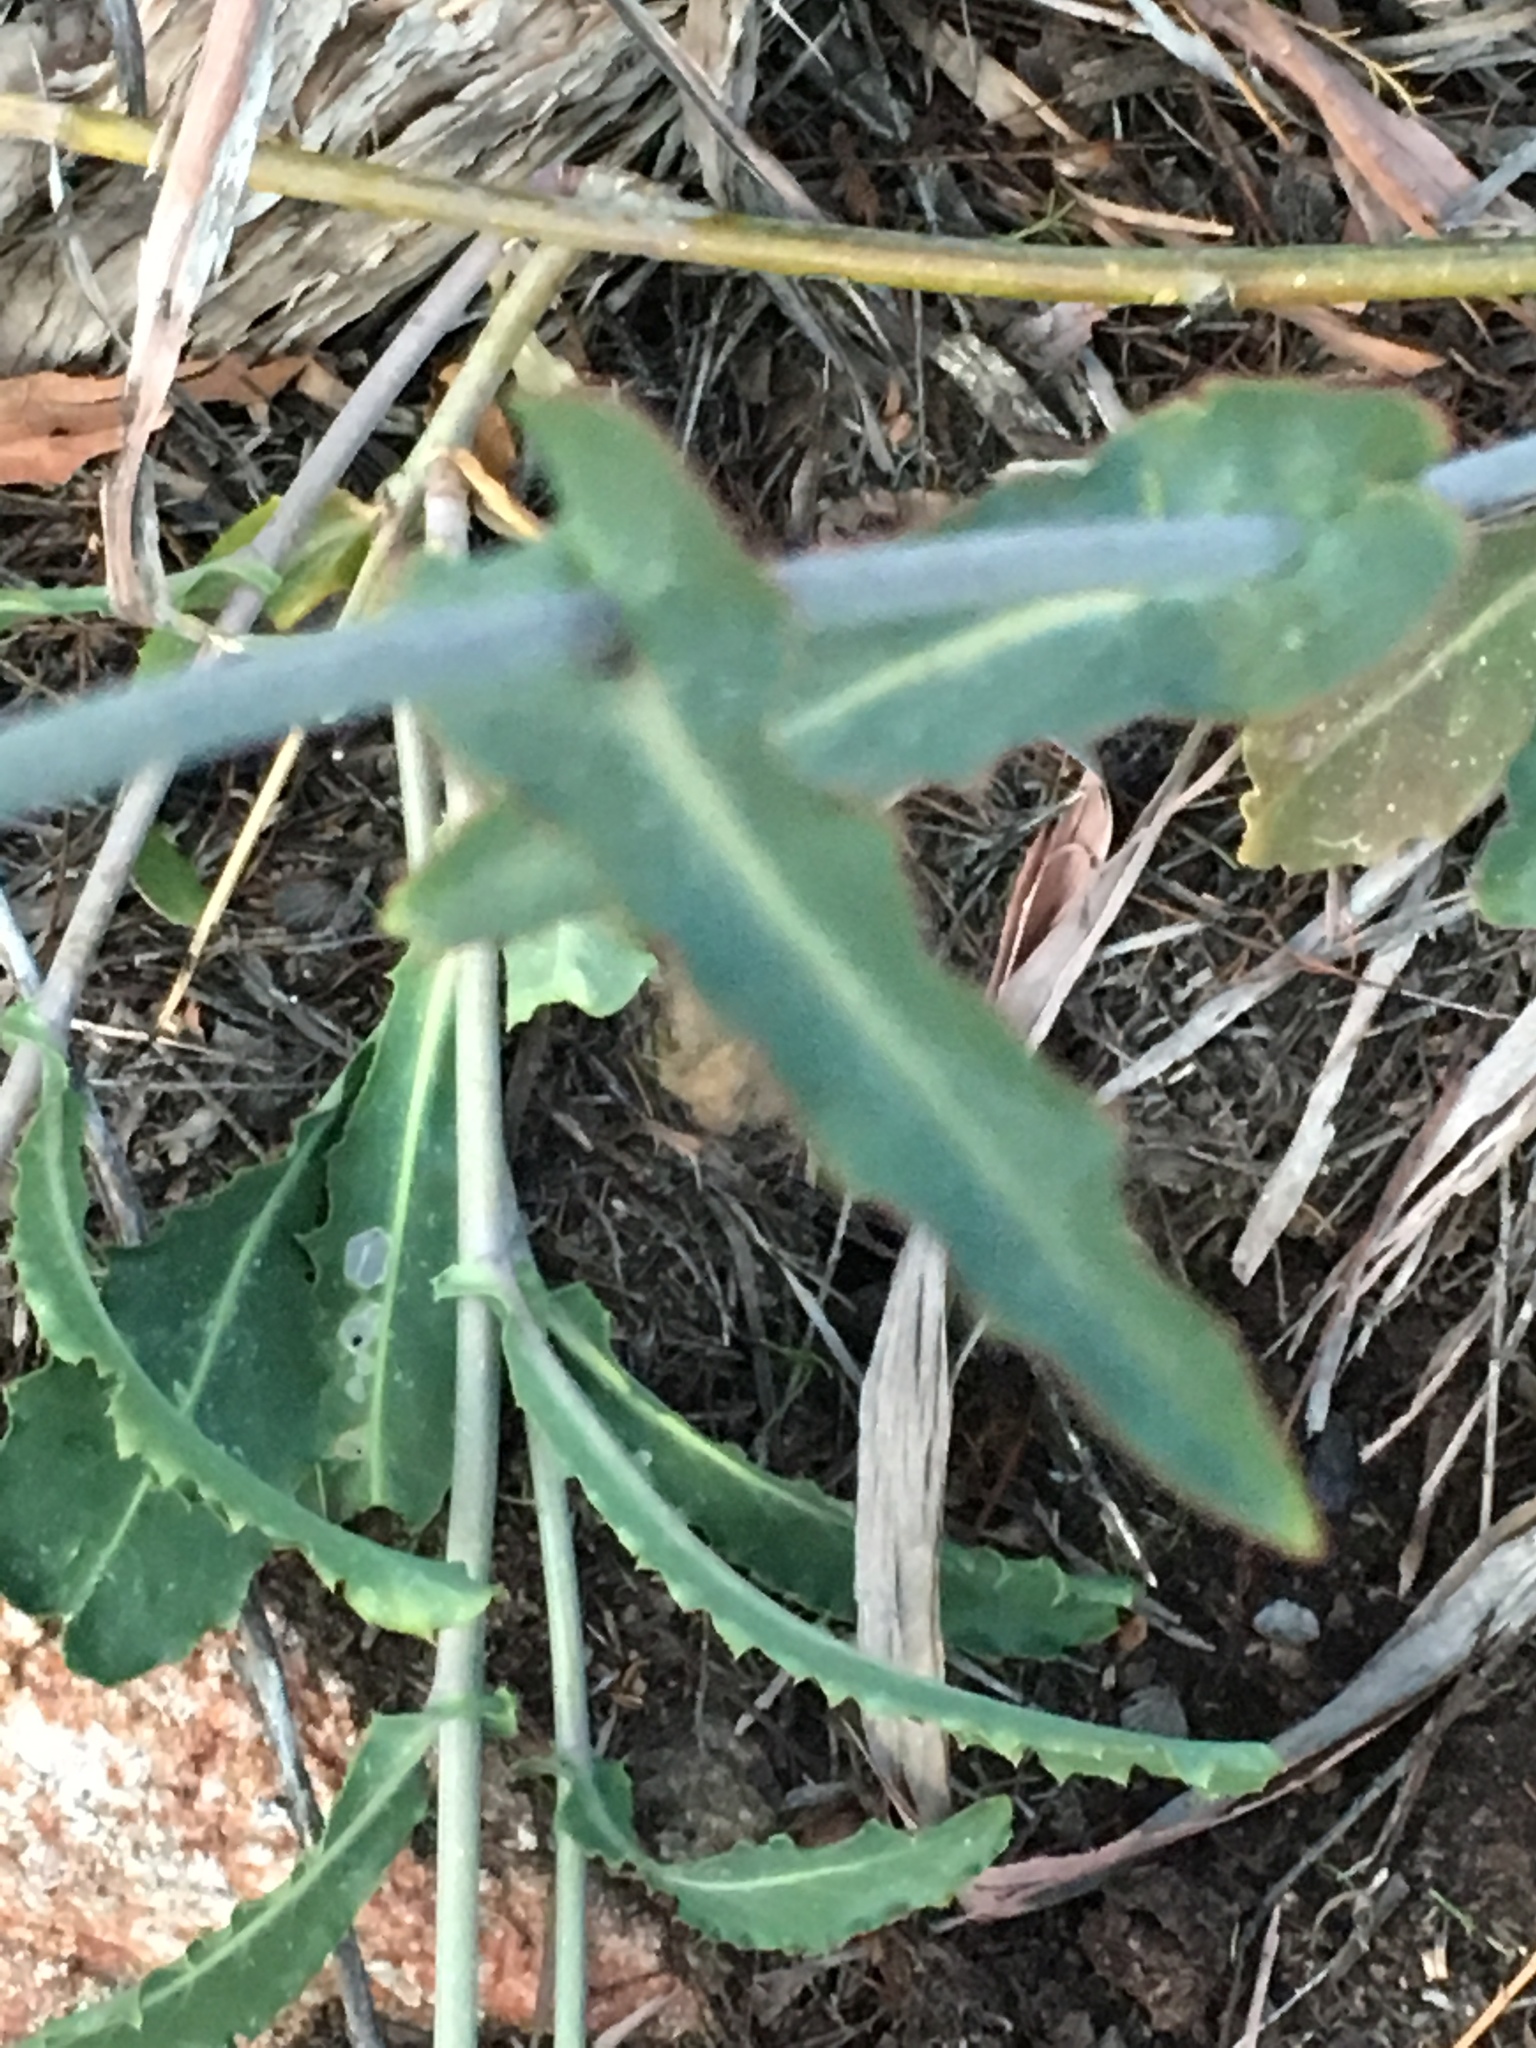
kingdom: Plantae
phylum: Tracheophyta
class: Magnoliopsida
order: Brassicales
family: Brassicaceae
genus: Streptanthus
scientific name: Streptanthus campestris
